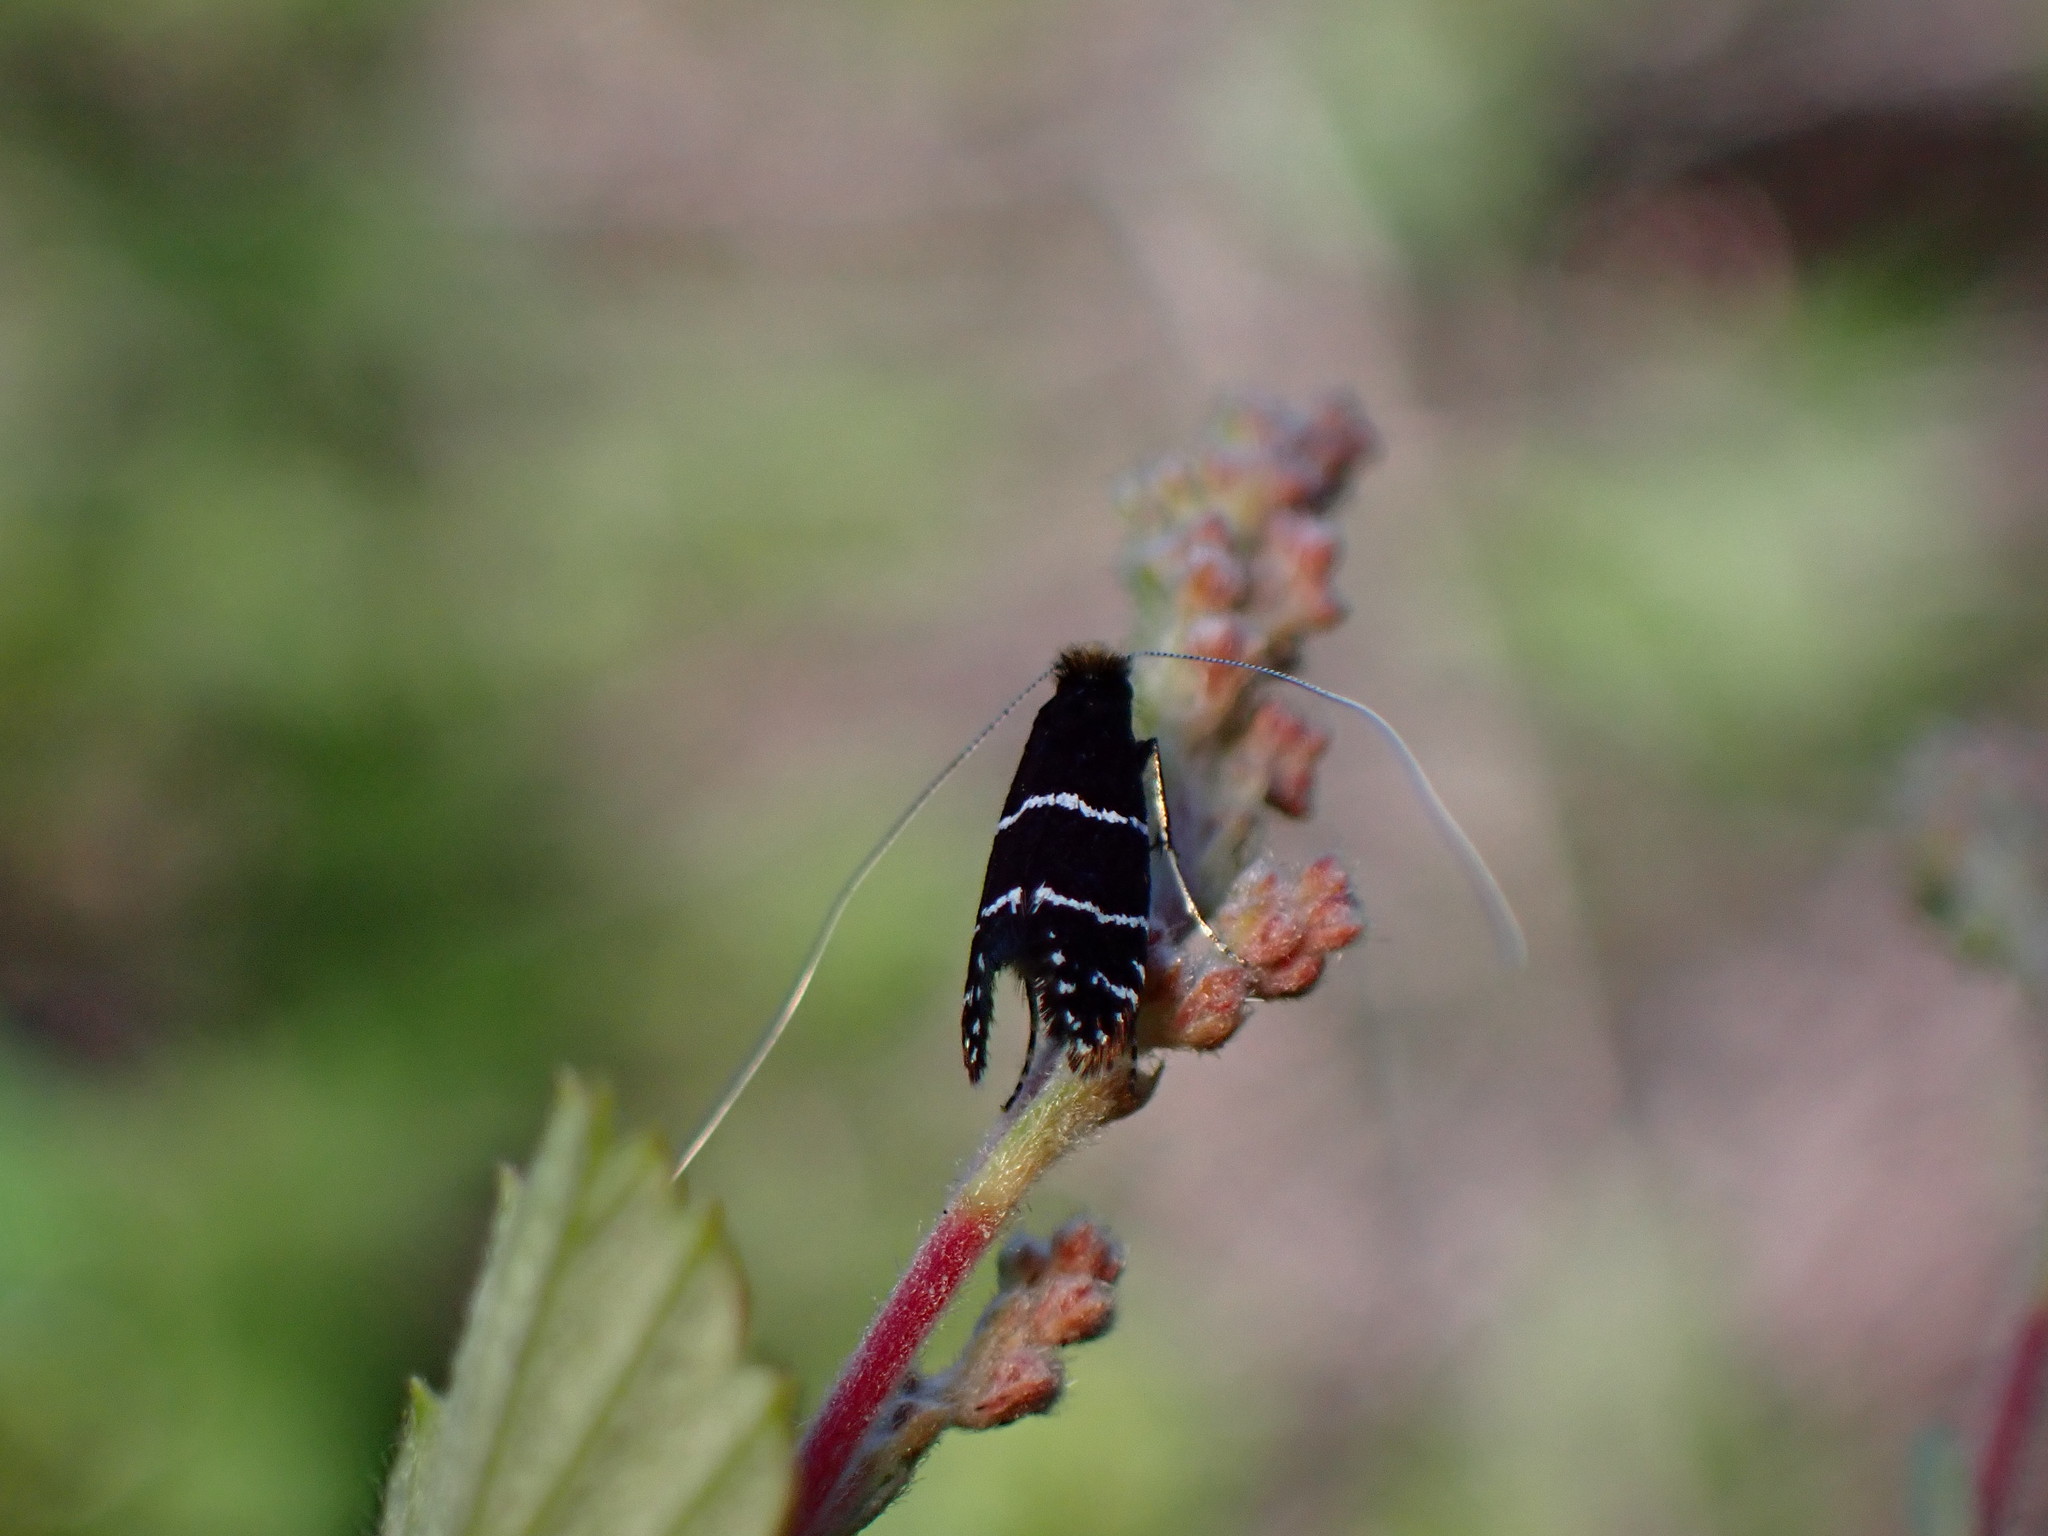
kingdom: Animalia
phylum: Arthropoda
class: Insecta
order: Lepidoptera
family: Adelidae
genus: Adela
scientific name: Adela septentrionella
